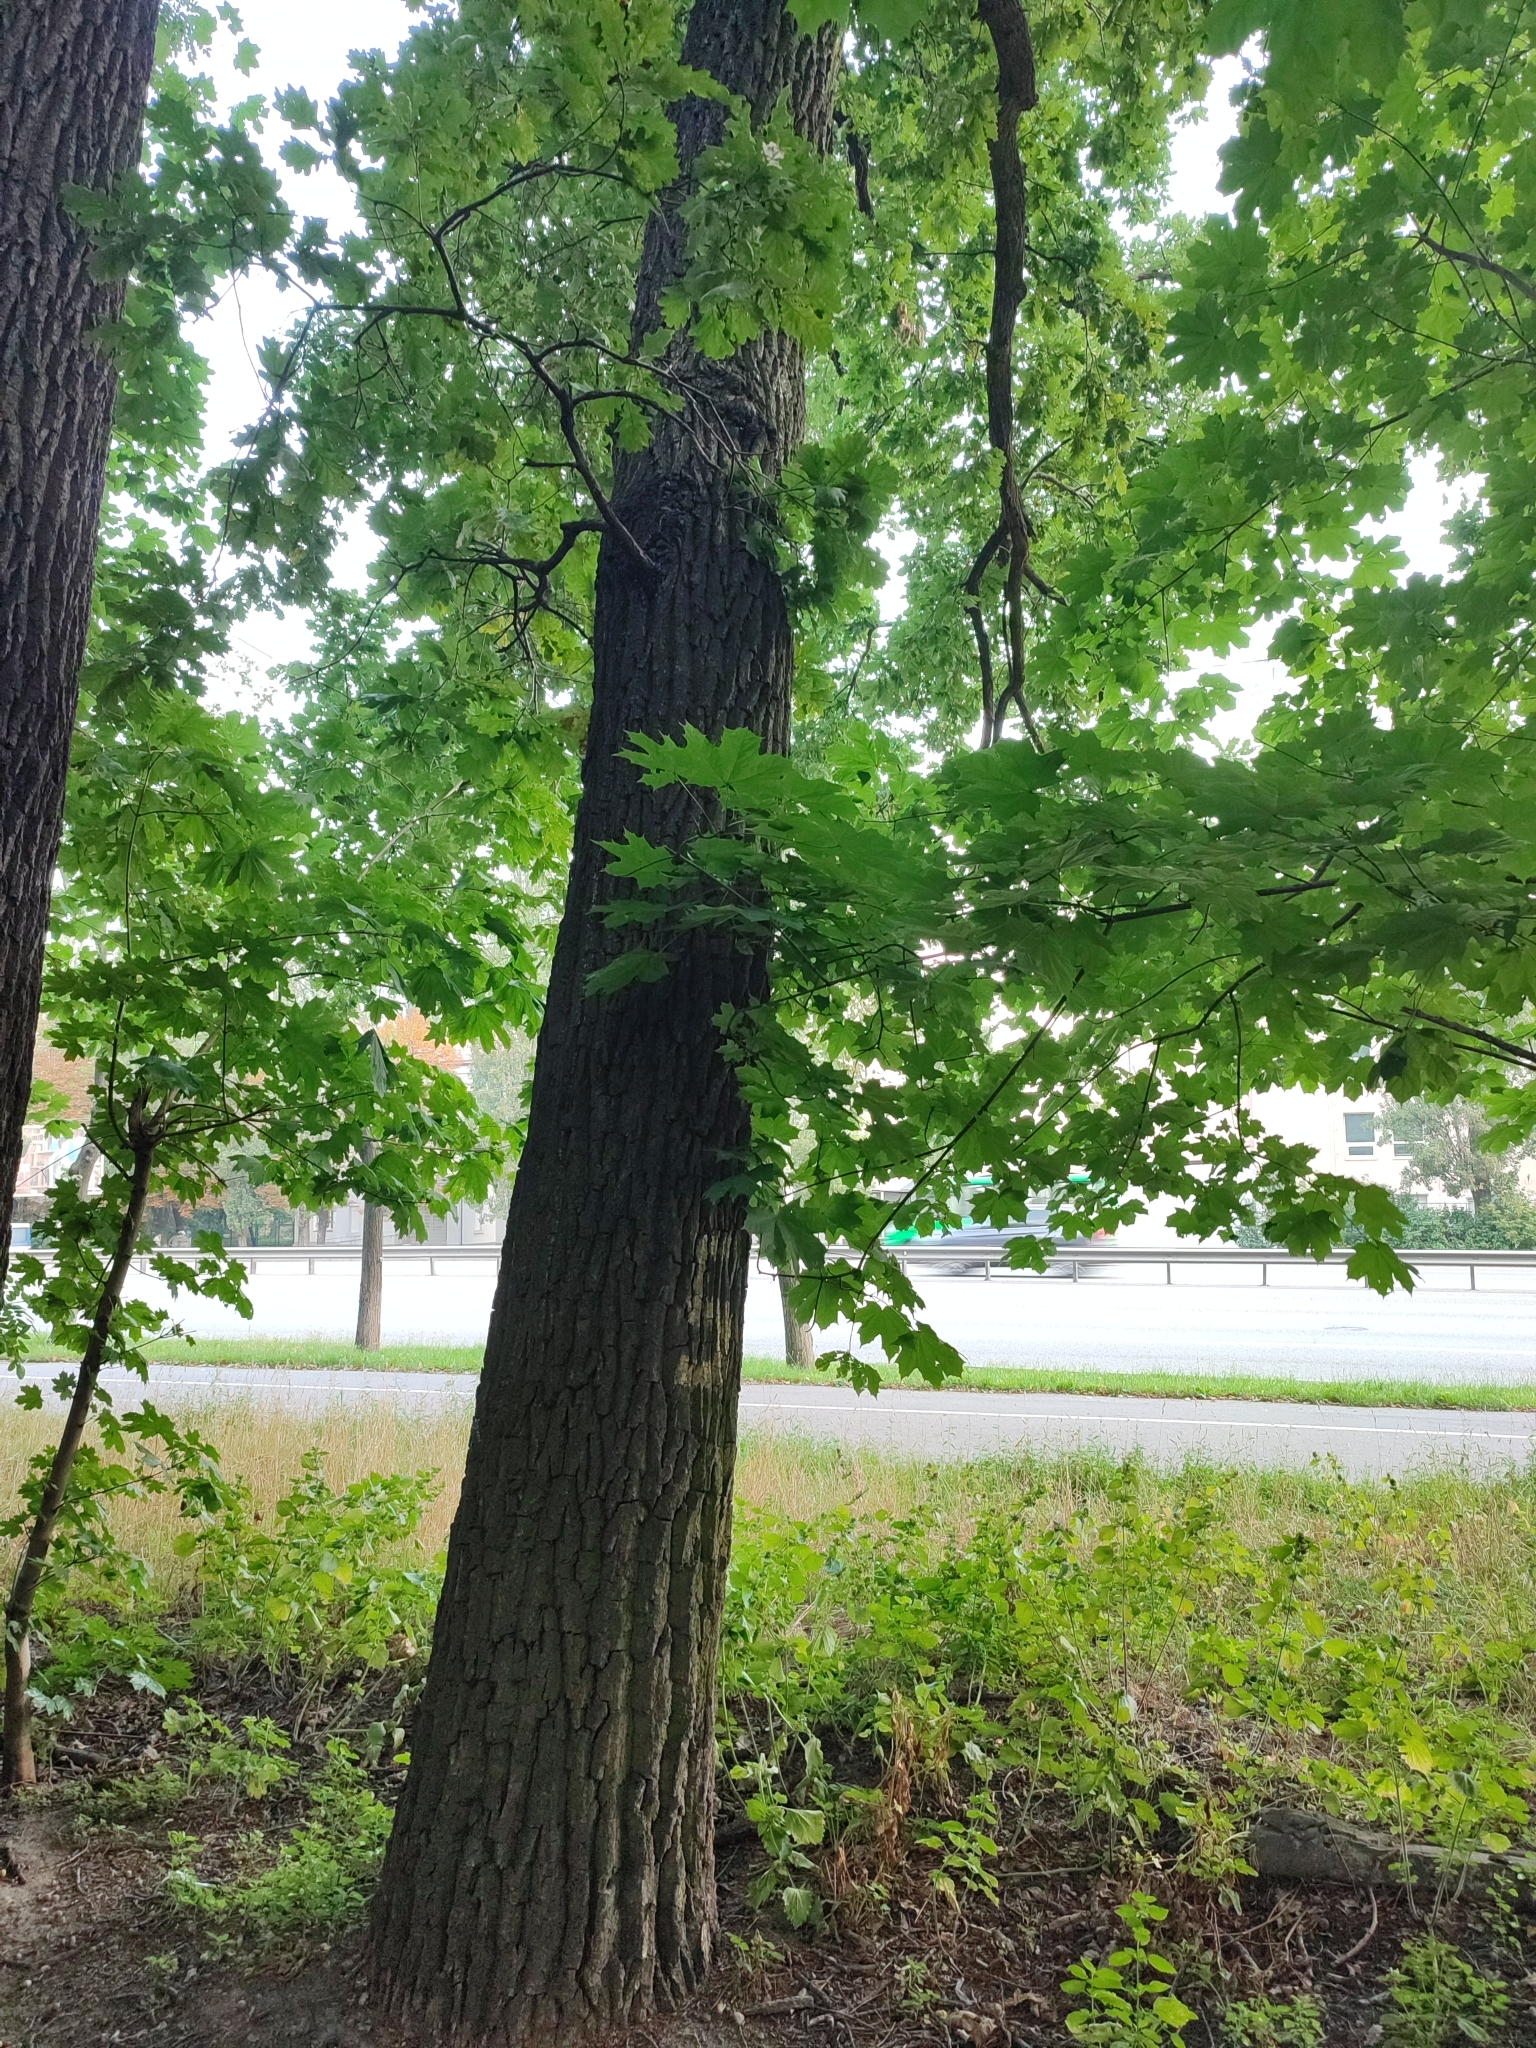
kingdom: Plantae
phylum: Tracheophyta
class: Magnoliopsida
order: Fagales
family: Fagaceae
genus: Quercus
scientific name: Quercus robur
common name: Pedunculate oak
